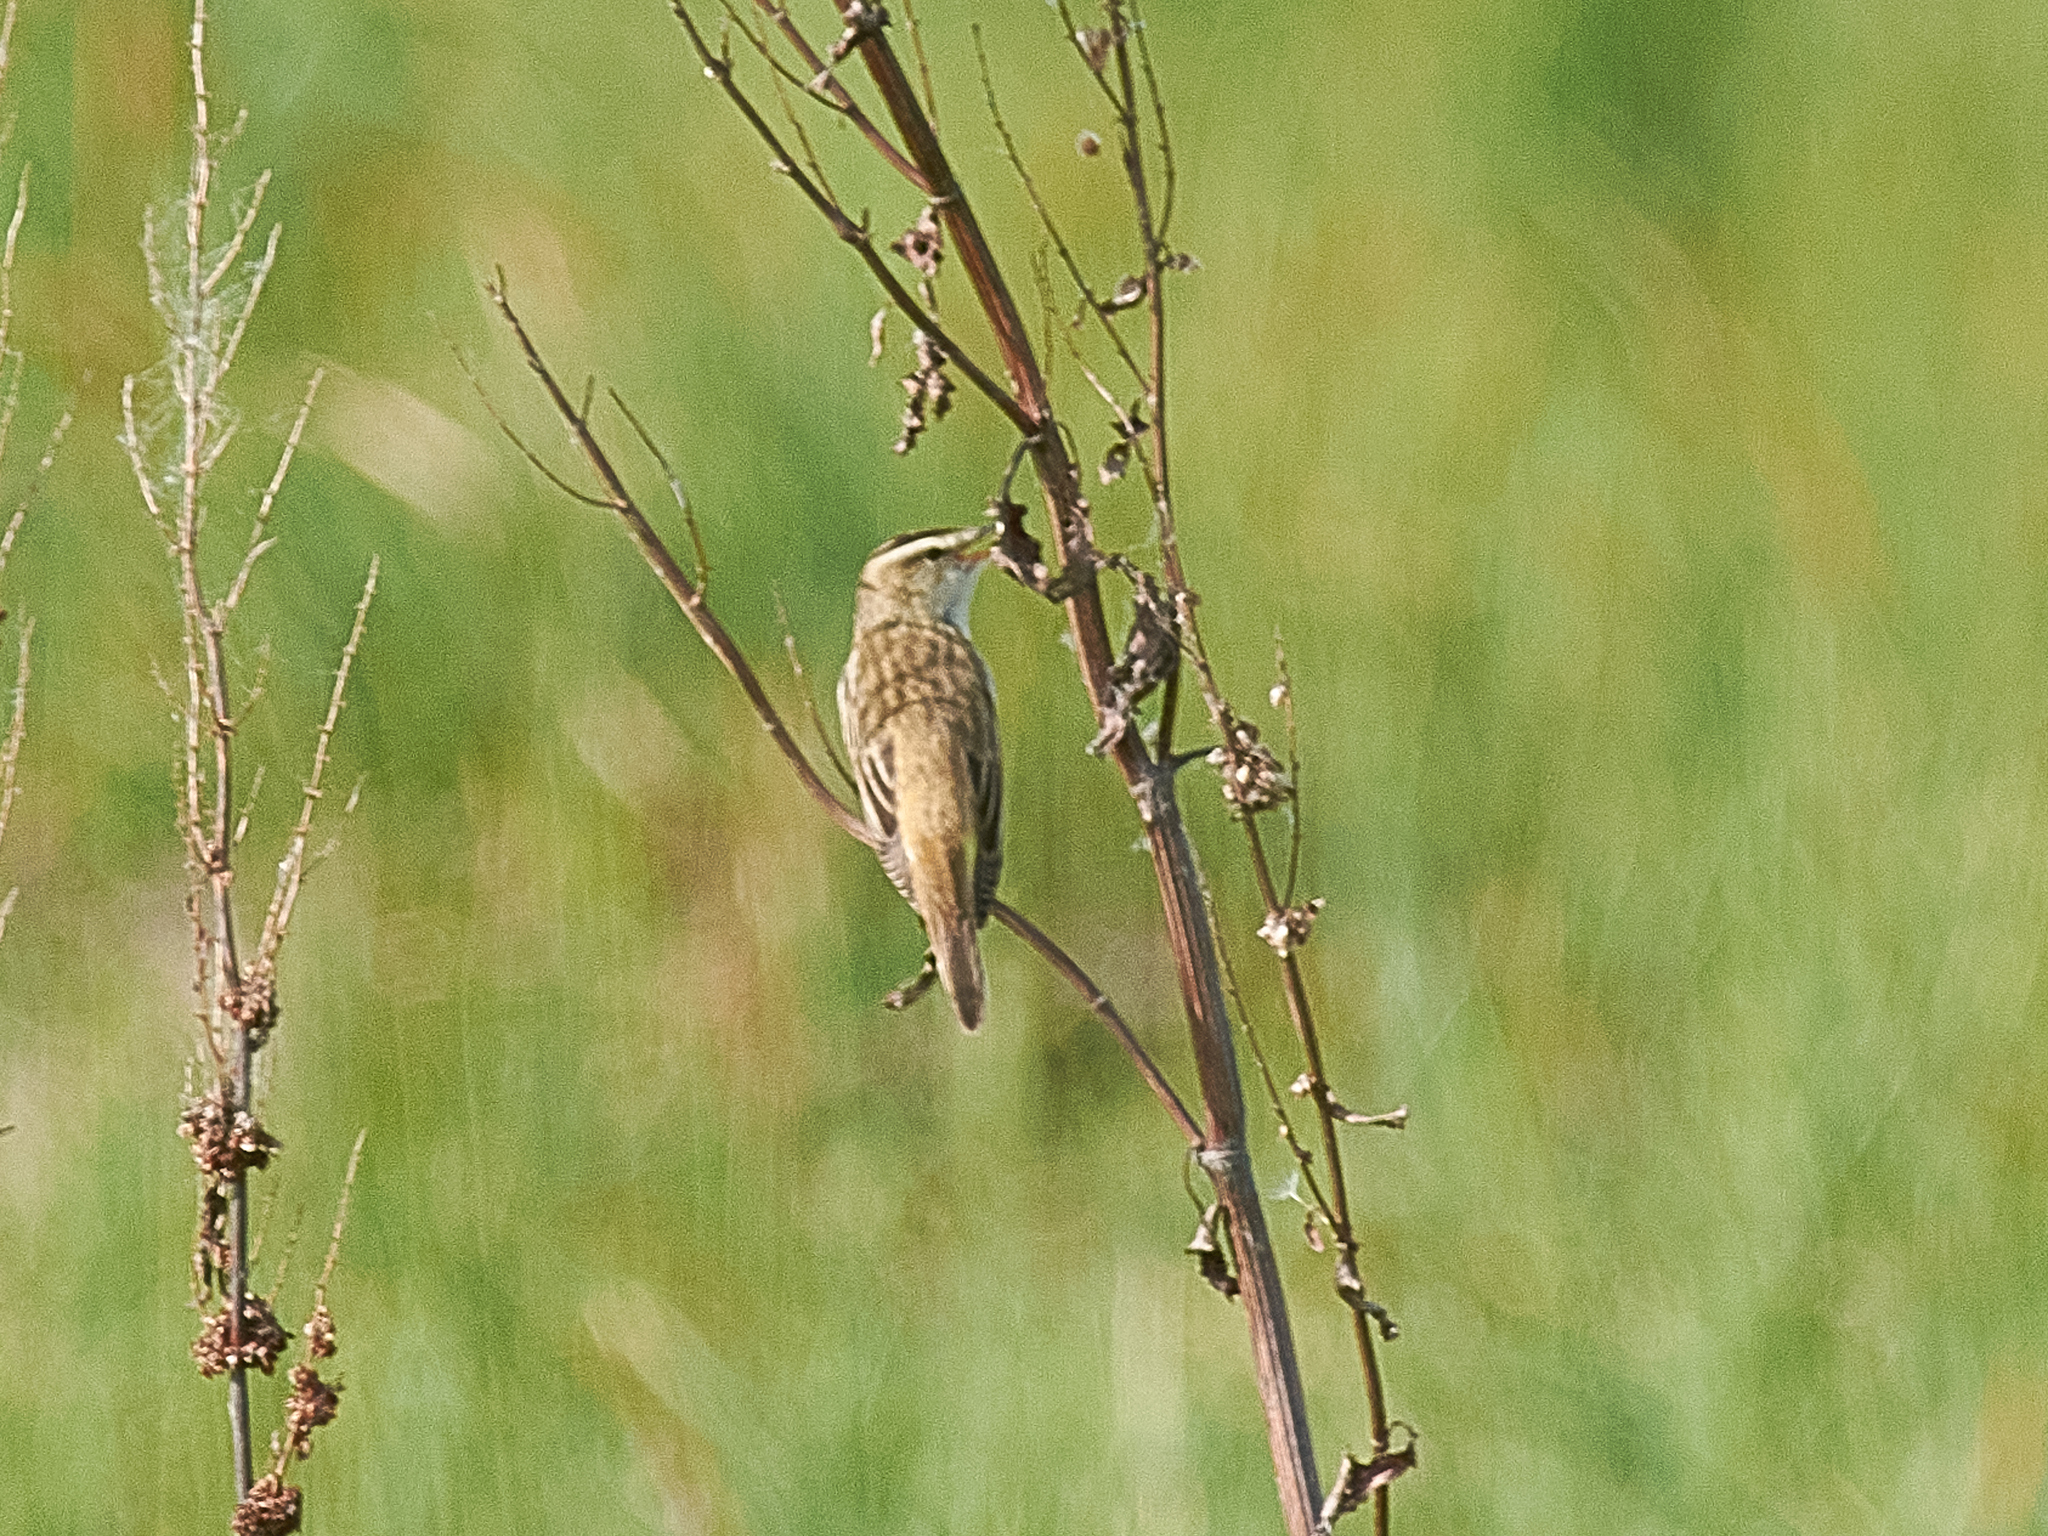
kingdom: Animalia
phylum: Chordata
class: Aves
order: Passeriformes
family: Acrocephalidae
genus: Acrocephalus
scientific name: Acrocephalus schoenobaenus
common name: Sedge warbler
